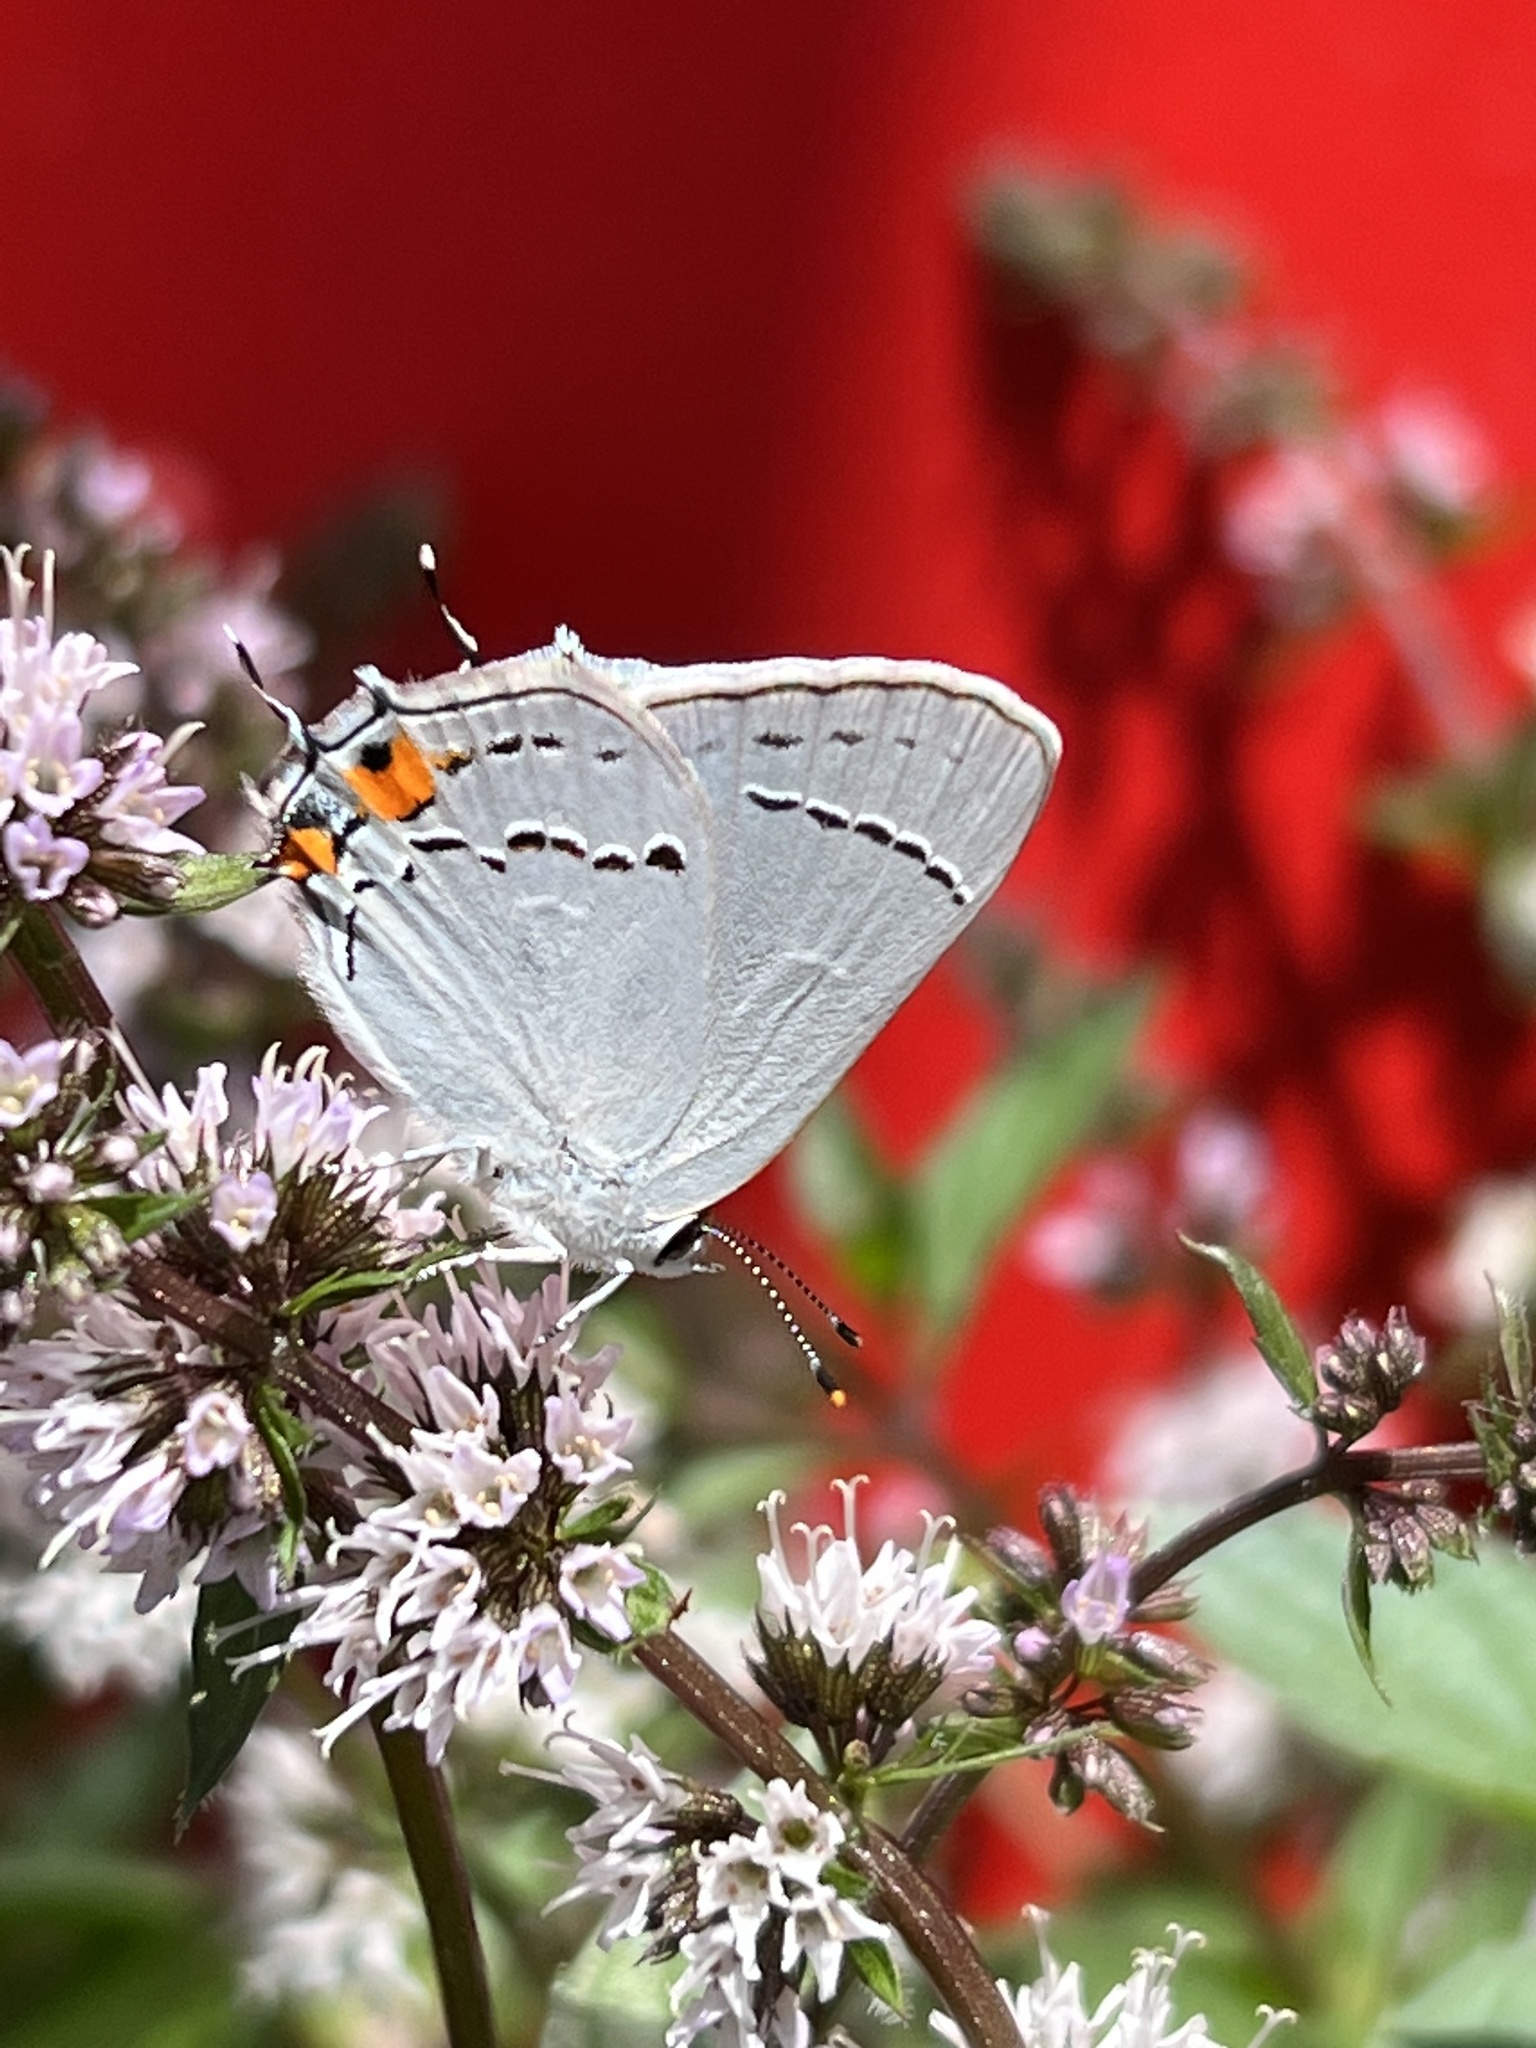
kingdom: Animalia
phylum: Arthropoda
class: Insecta
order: Lepidoptera
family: Lycaenidae
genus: Strymon
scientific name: Strymon melinus
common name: Gray hairstreak
